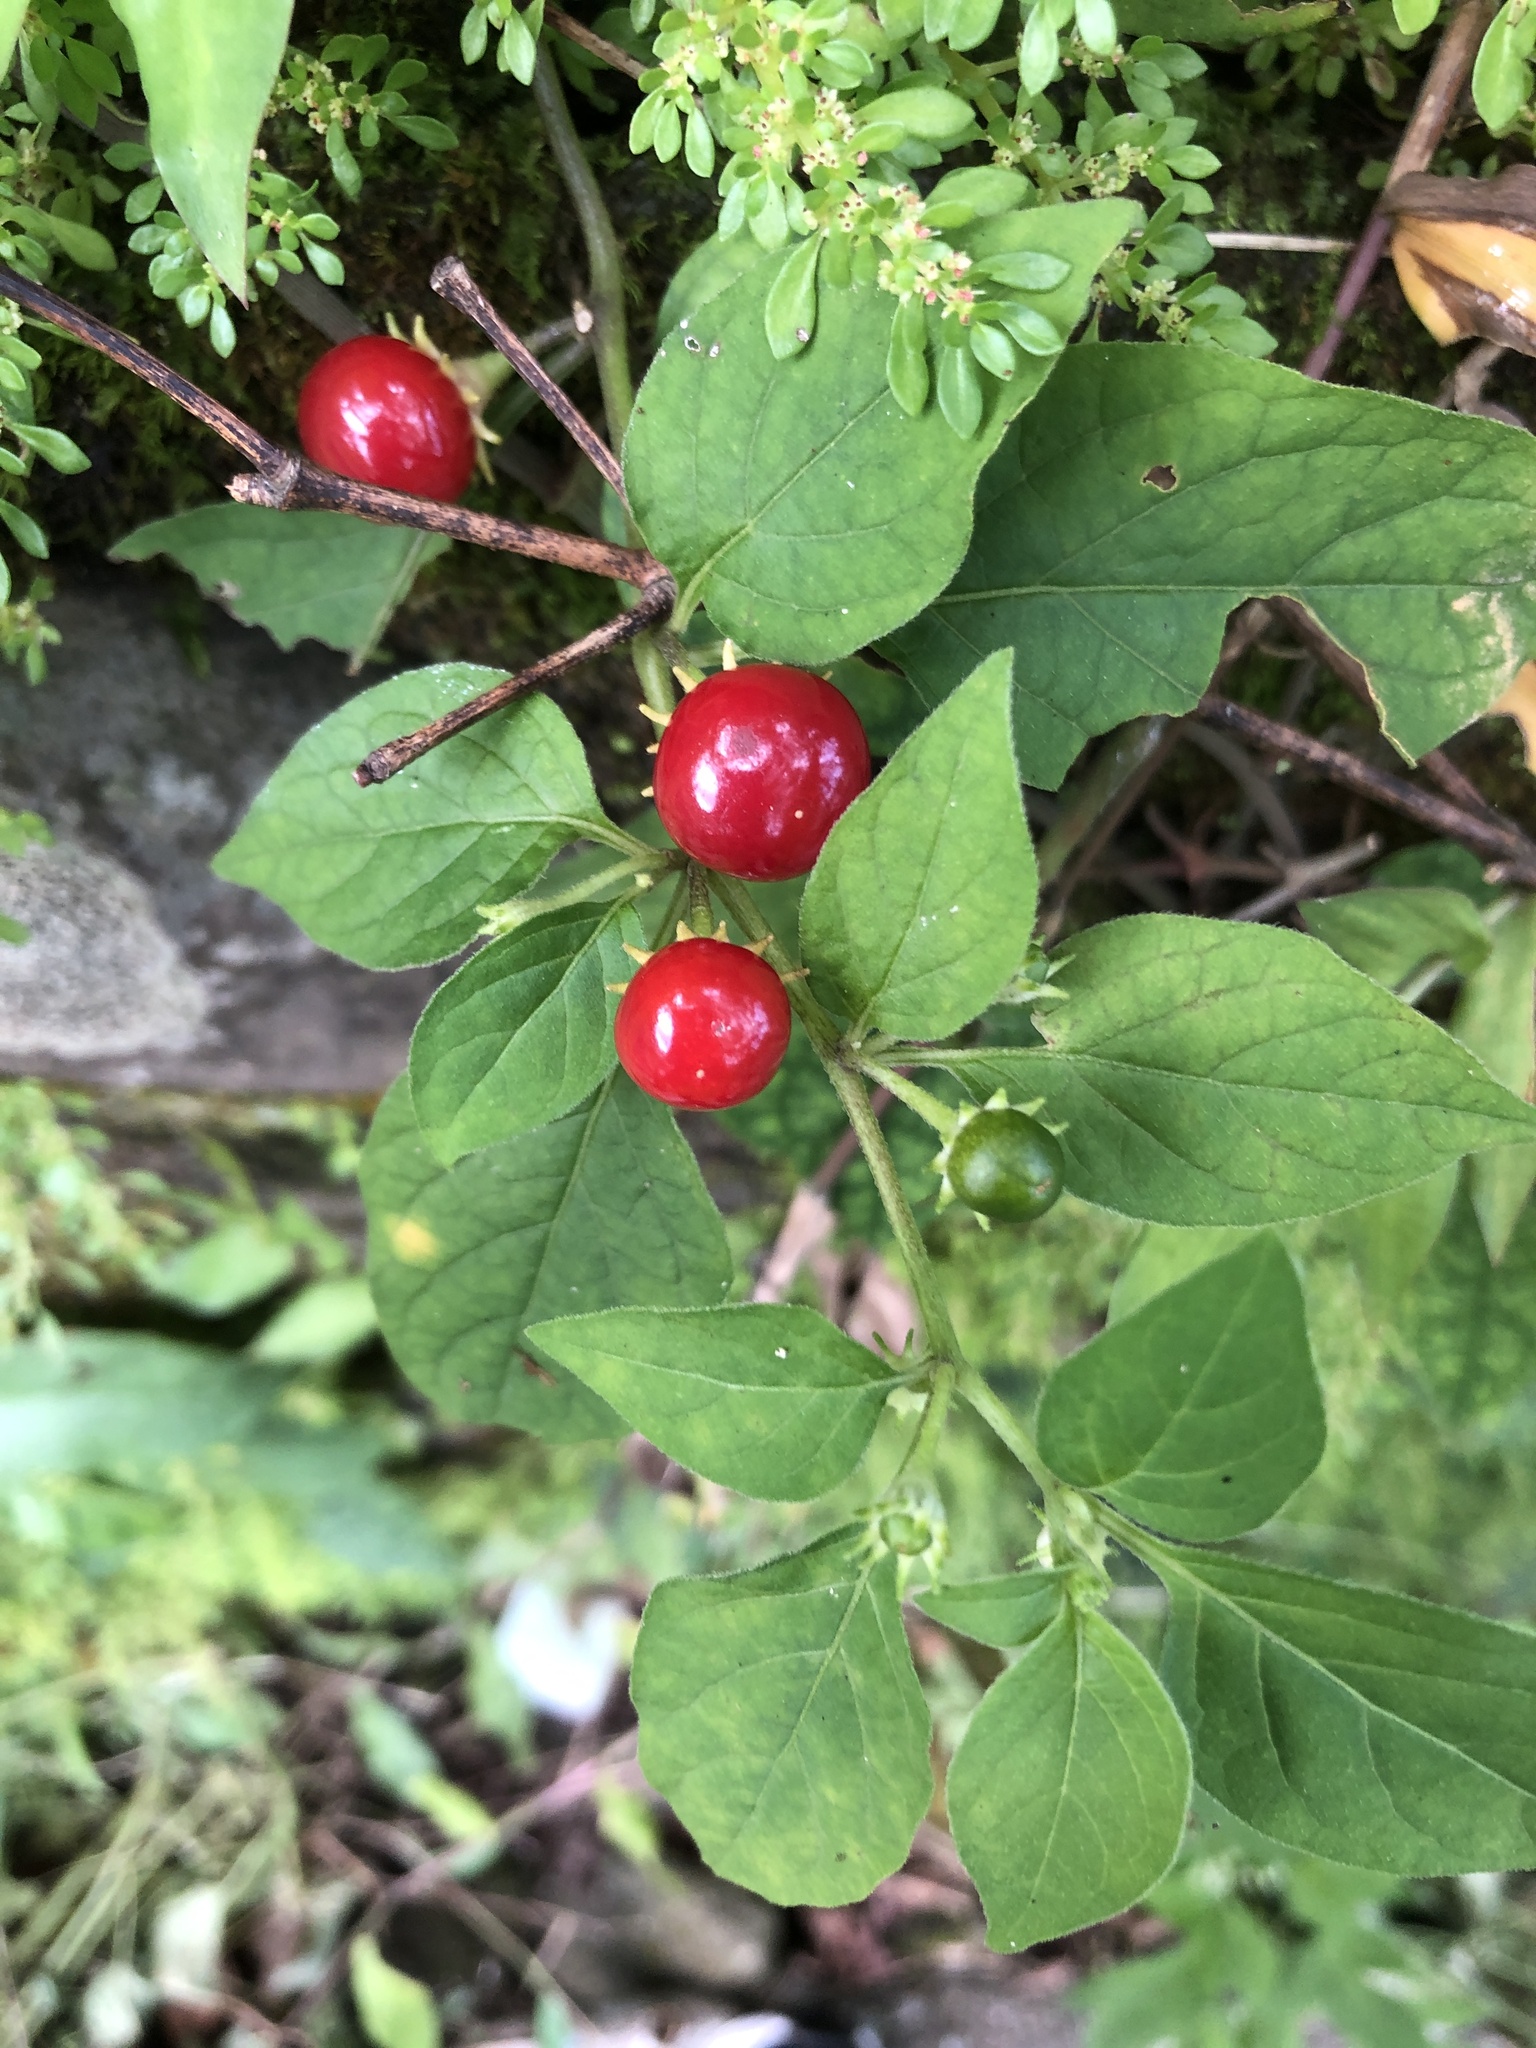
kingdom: Plantae
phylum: Tracheophyta
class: Magnoliopsida
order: Solanales
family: Solanaceae
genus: Lycianthes
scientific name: Lycianthes biflora
